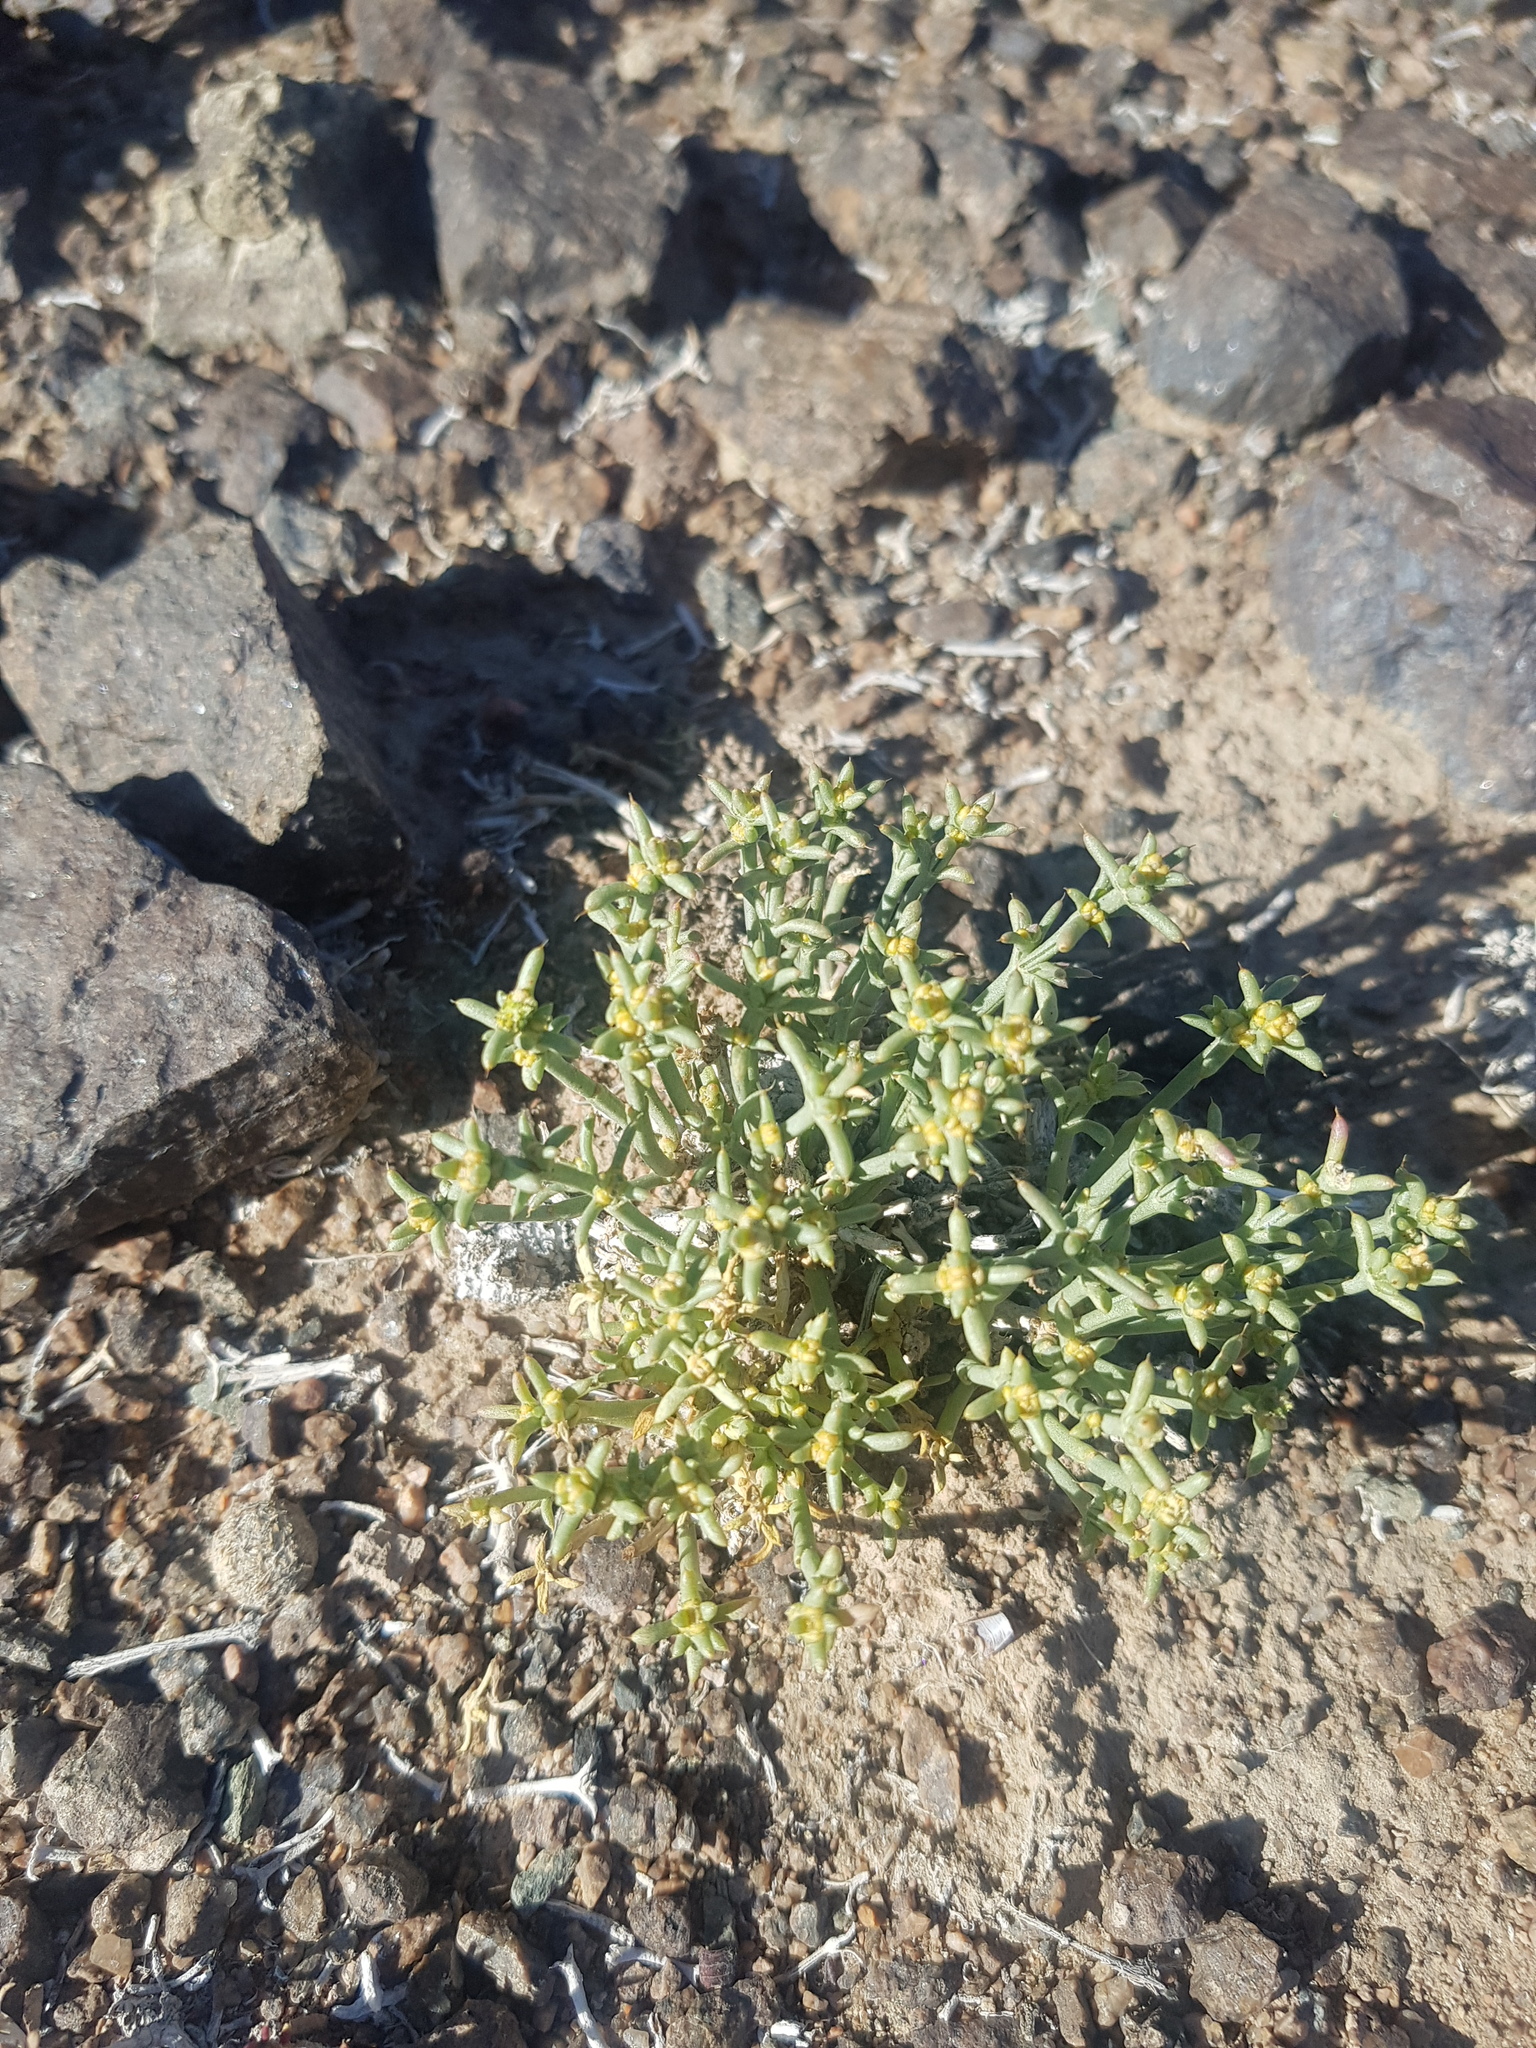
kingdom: Plantae
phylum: Tracheophyta
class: Magnoliopsida
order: Caryophyllales
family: Amaranthaceae
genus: Anabasis
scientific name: Anabasis brevifolia
